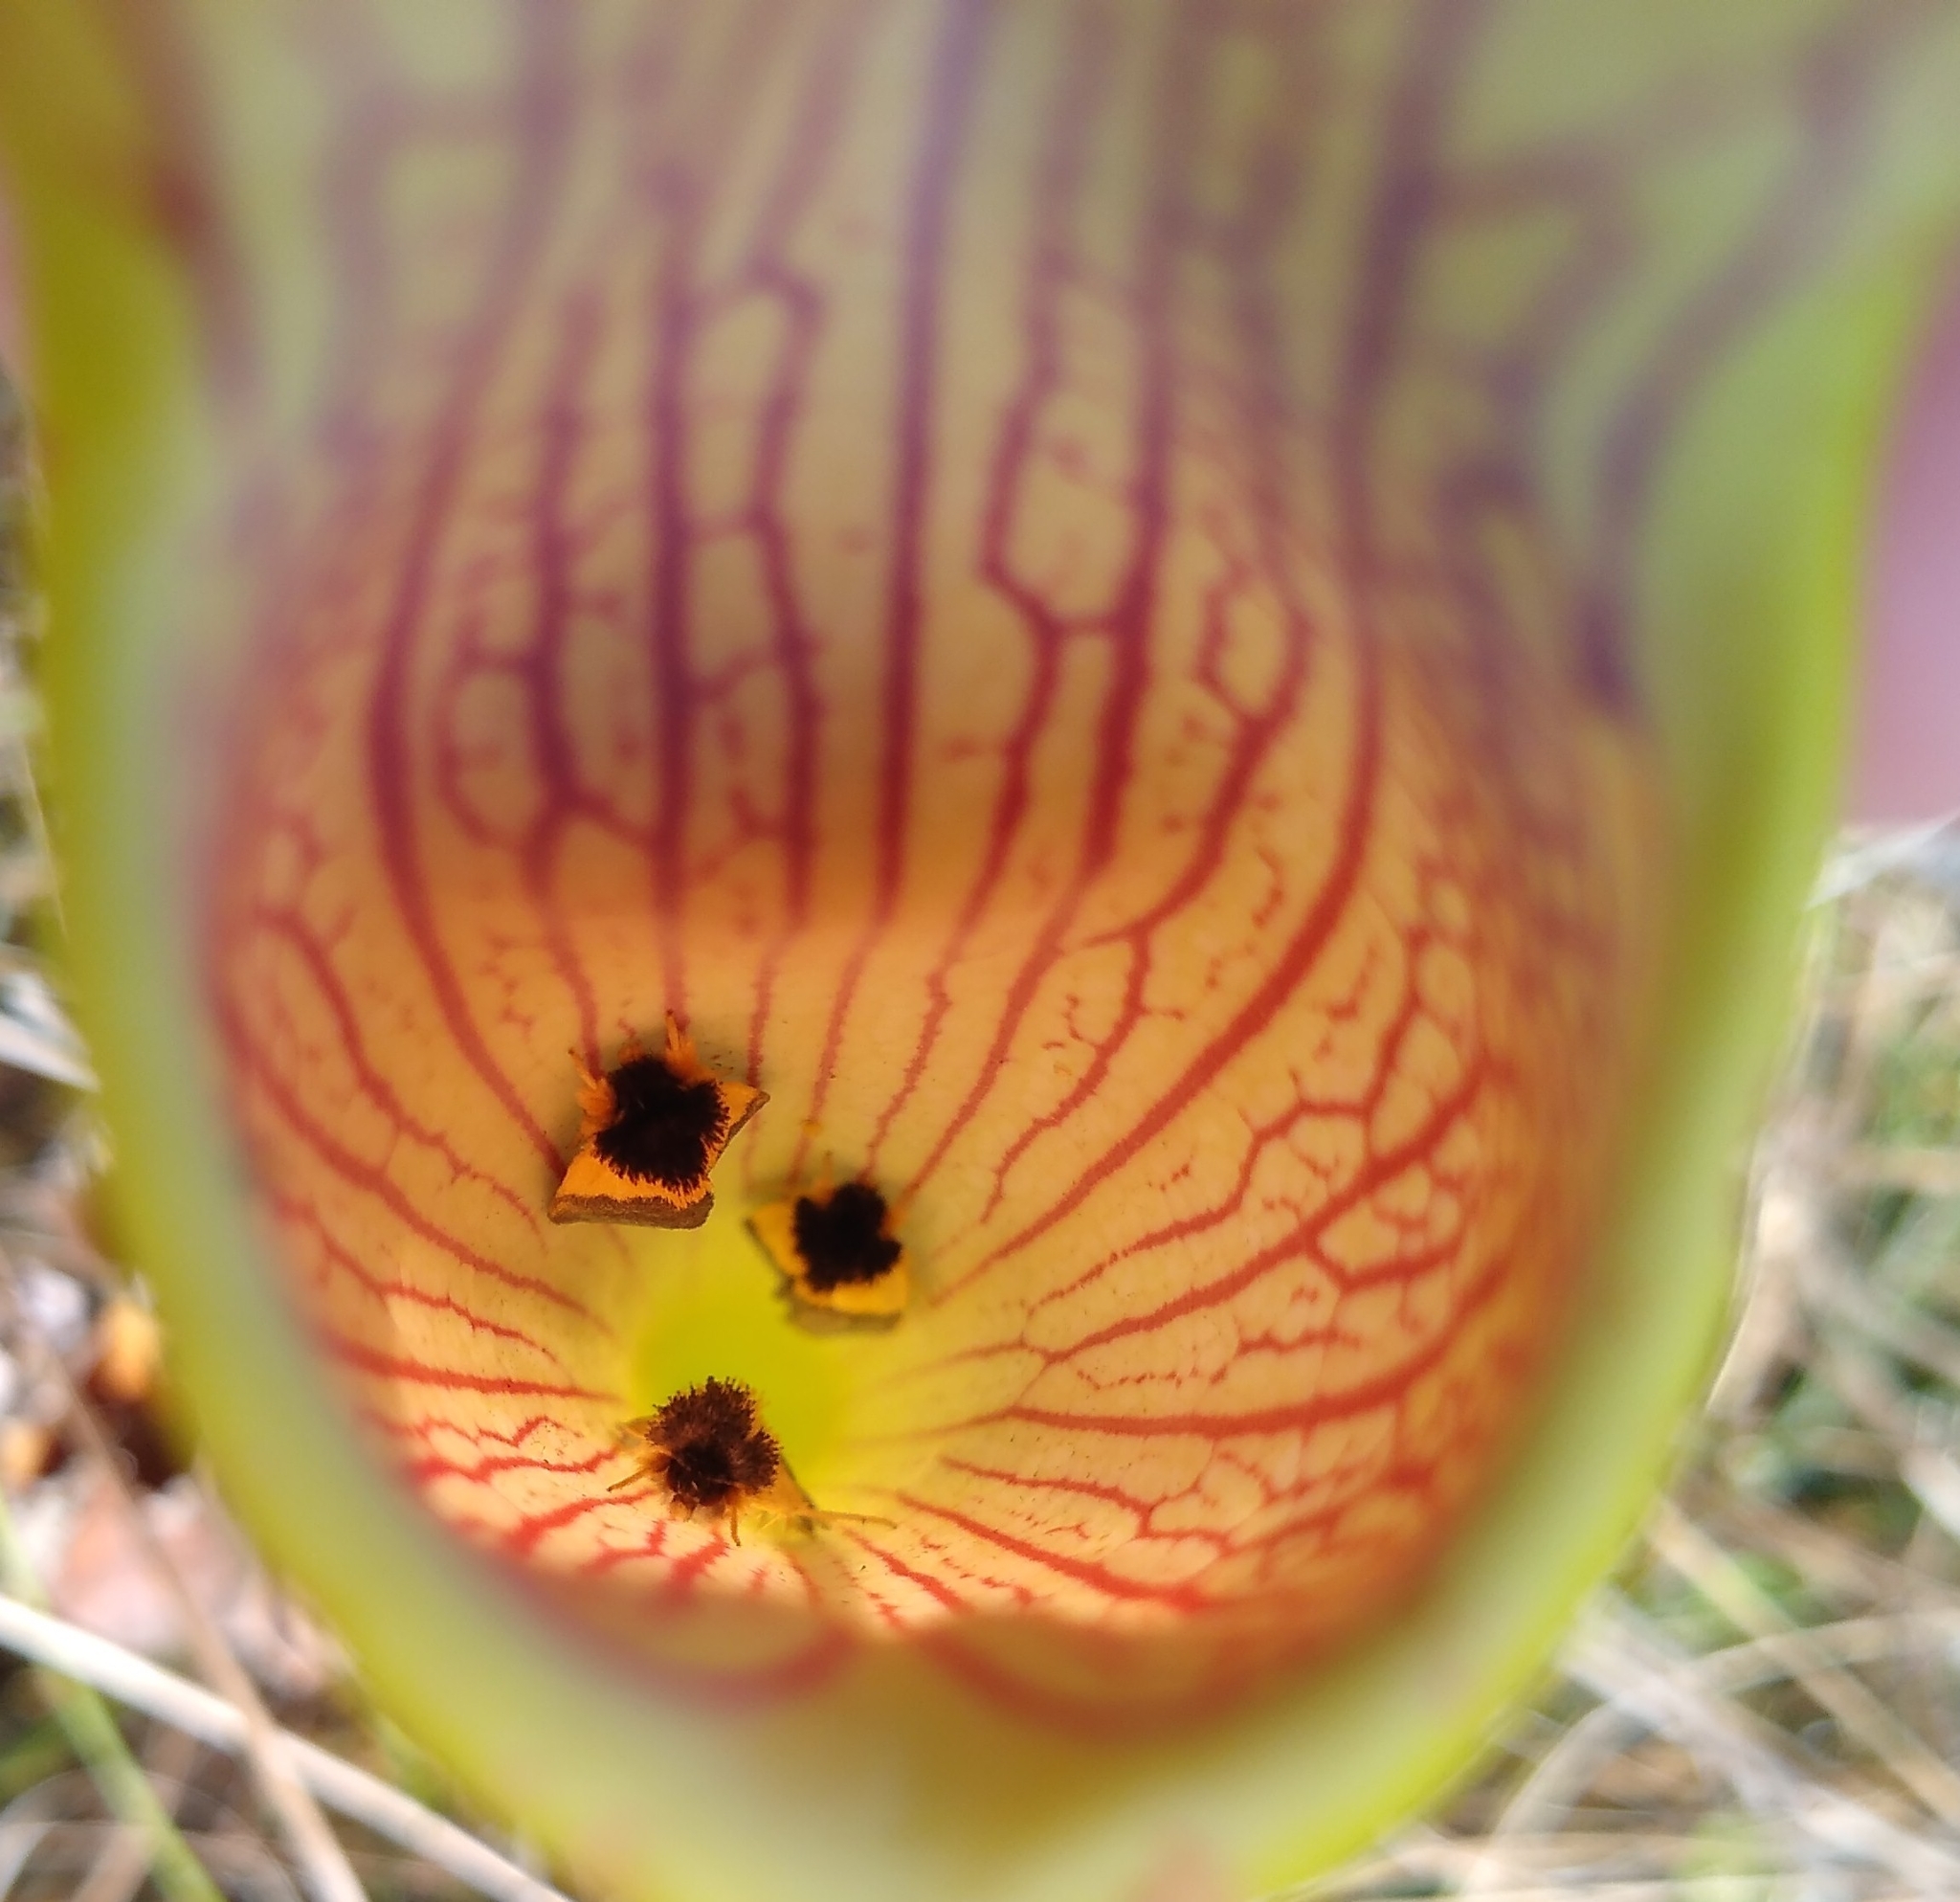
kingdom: Animalia
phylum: Arthropoda
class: Insecta
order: Lepidoptera
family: Noctuidae
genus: Exyra
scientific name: Exyra semicrocea
